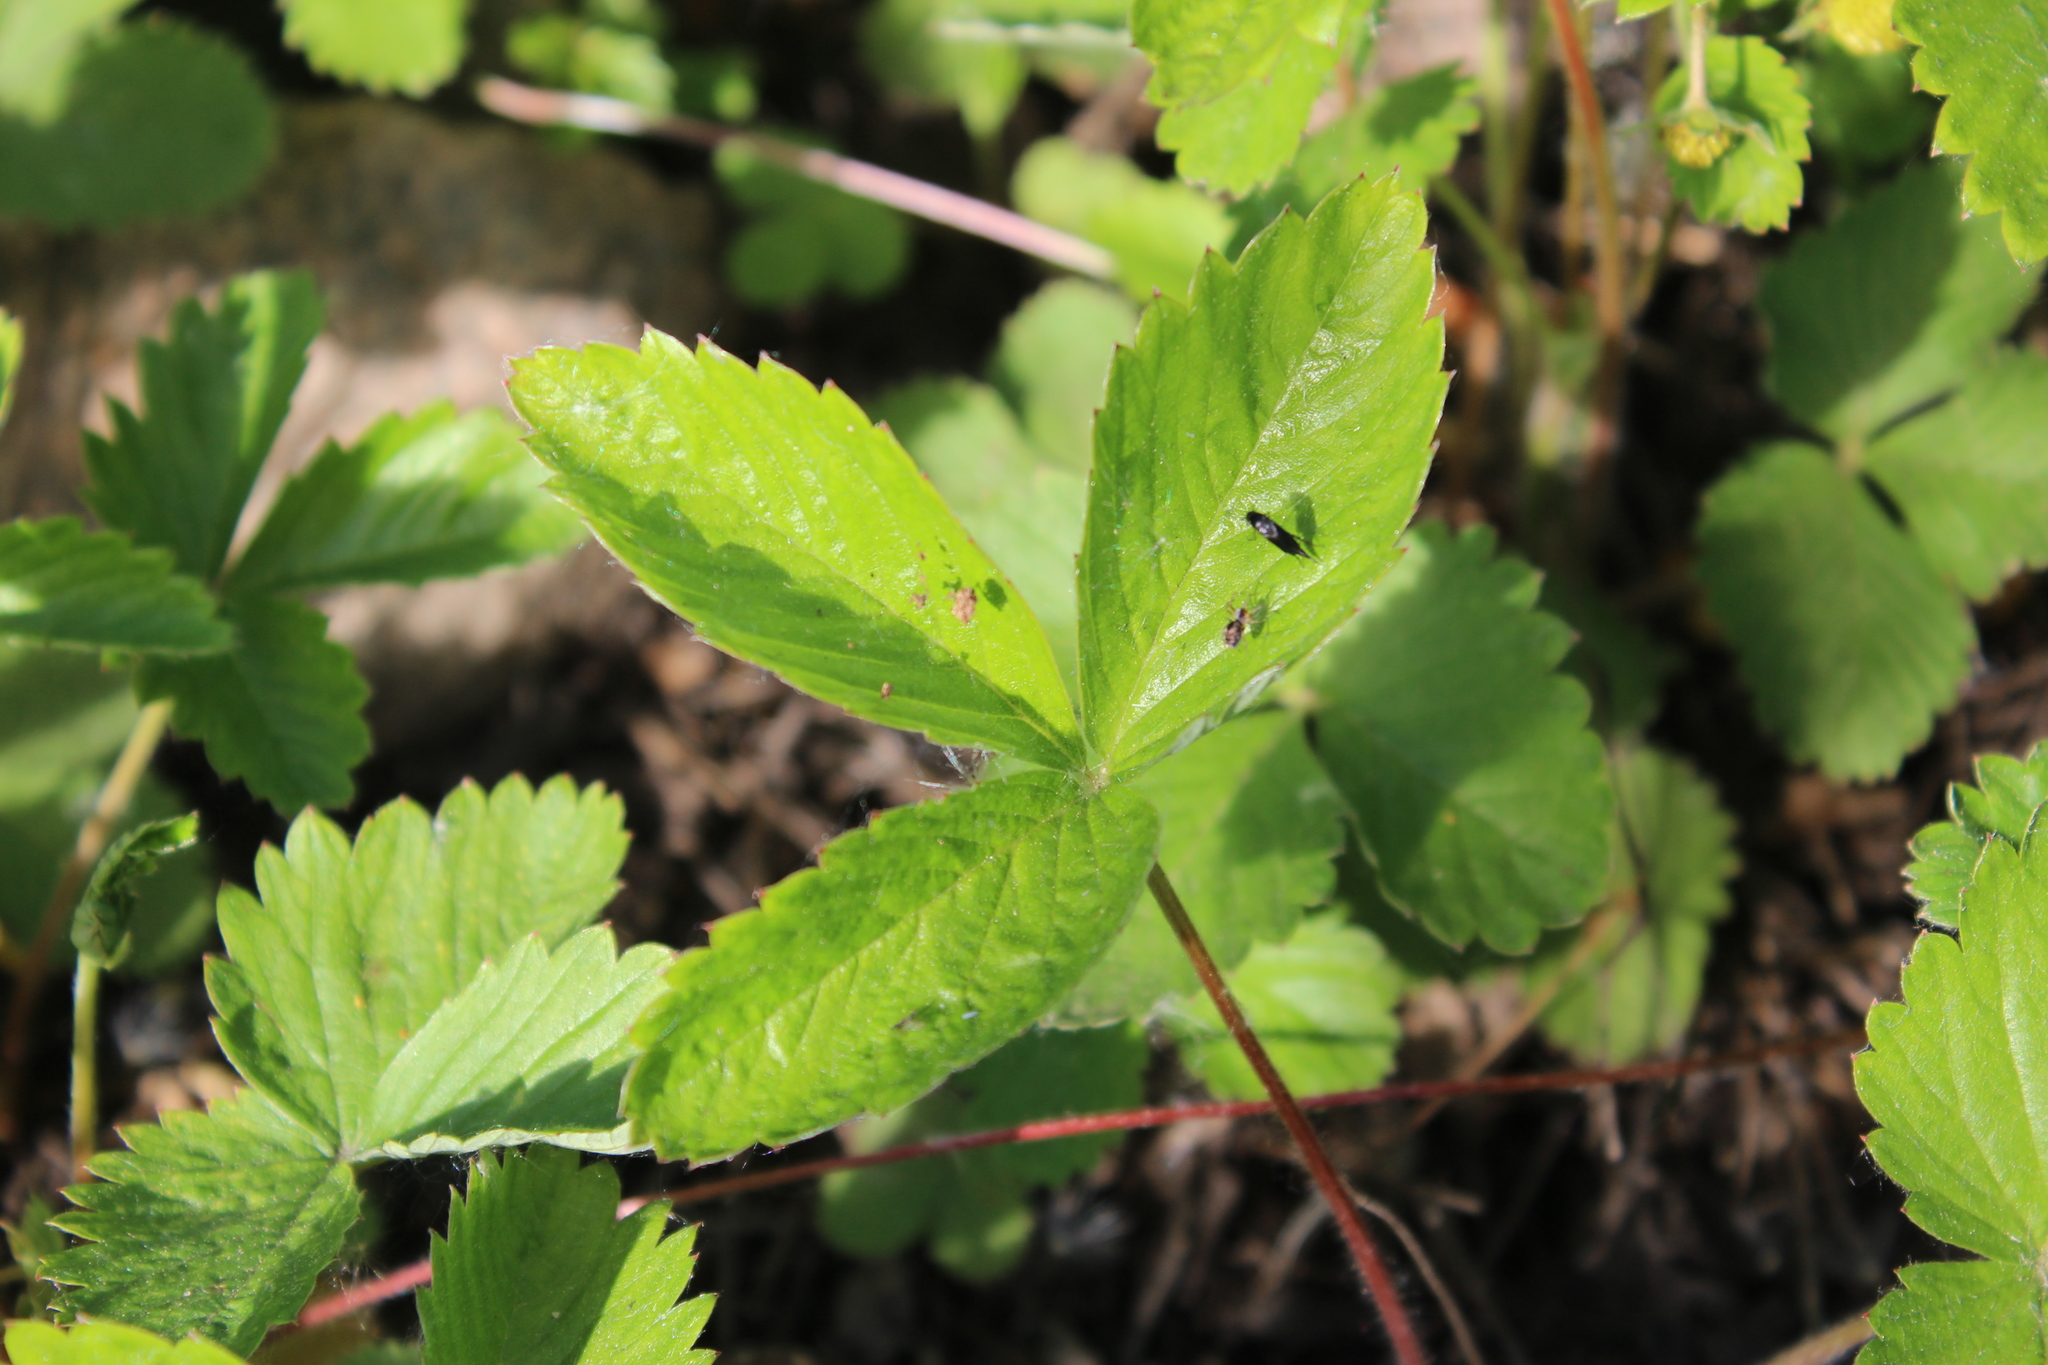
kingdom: Plantae
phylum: Tracheophyta
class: Magnoliopsida
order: Rosales
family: Rosaceae
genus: Fragaria
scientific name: Fragaria viridis
